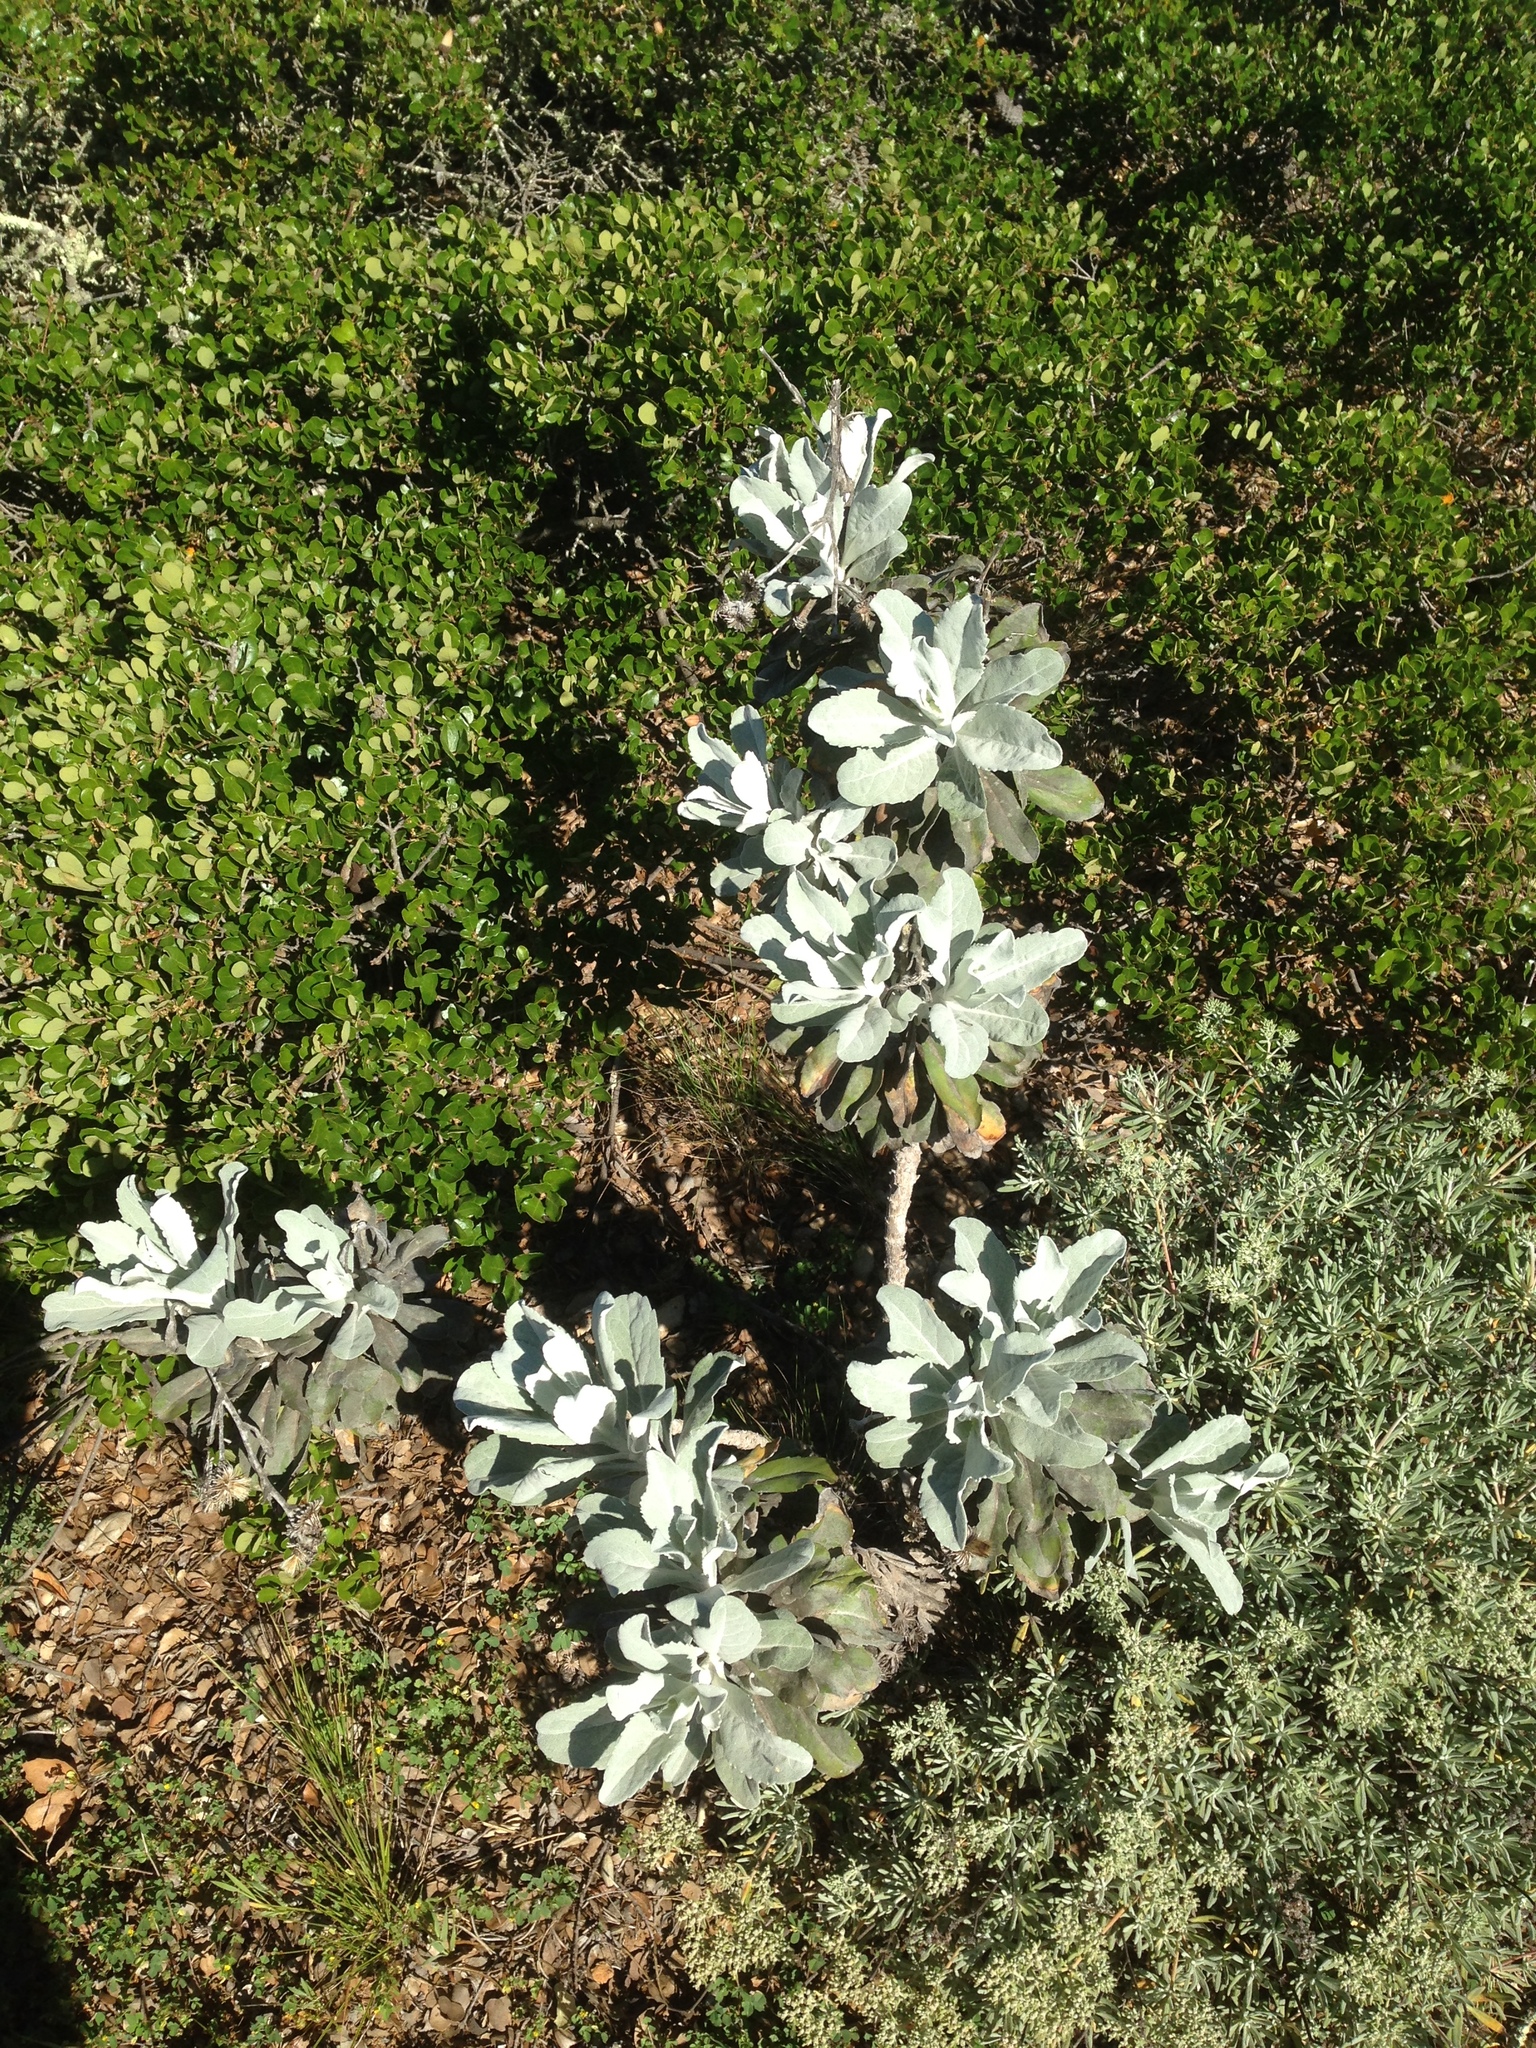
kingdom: Plantae
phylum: Tracheophyta
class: Magnoliopsida
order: Asterales
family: Asteraceae
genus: Hazardia
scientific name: Hazardia detonsa
